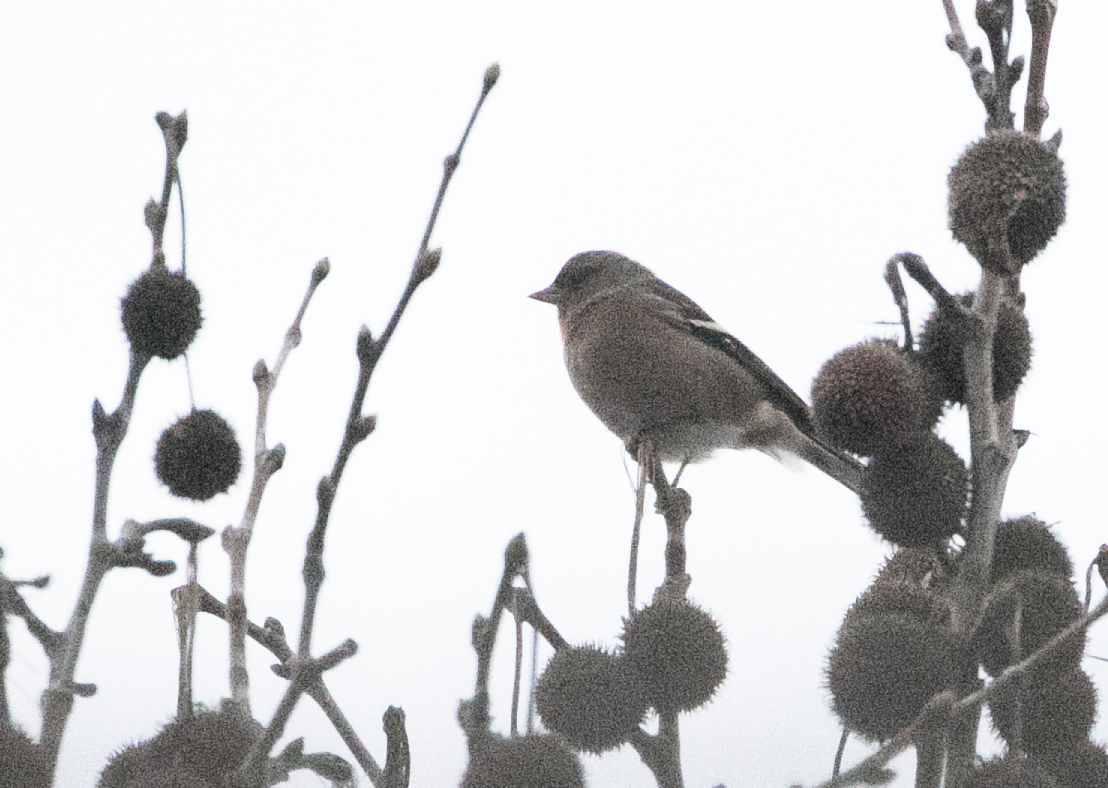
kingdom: Animalia
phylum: Chordata
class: Aves
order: Passeriformes
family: Fringillidae
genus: Fringilla
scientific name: Fringilla coelebs
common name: Common chaffinch
